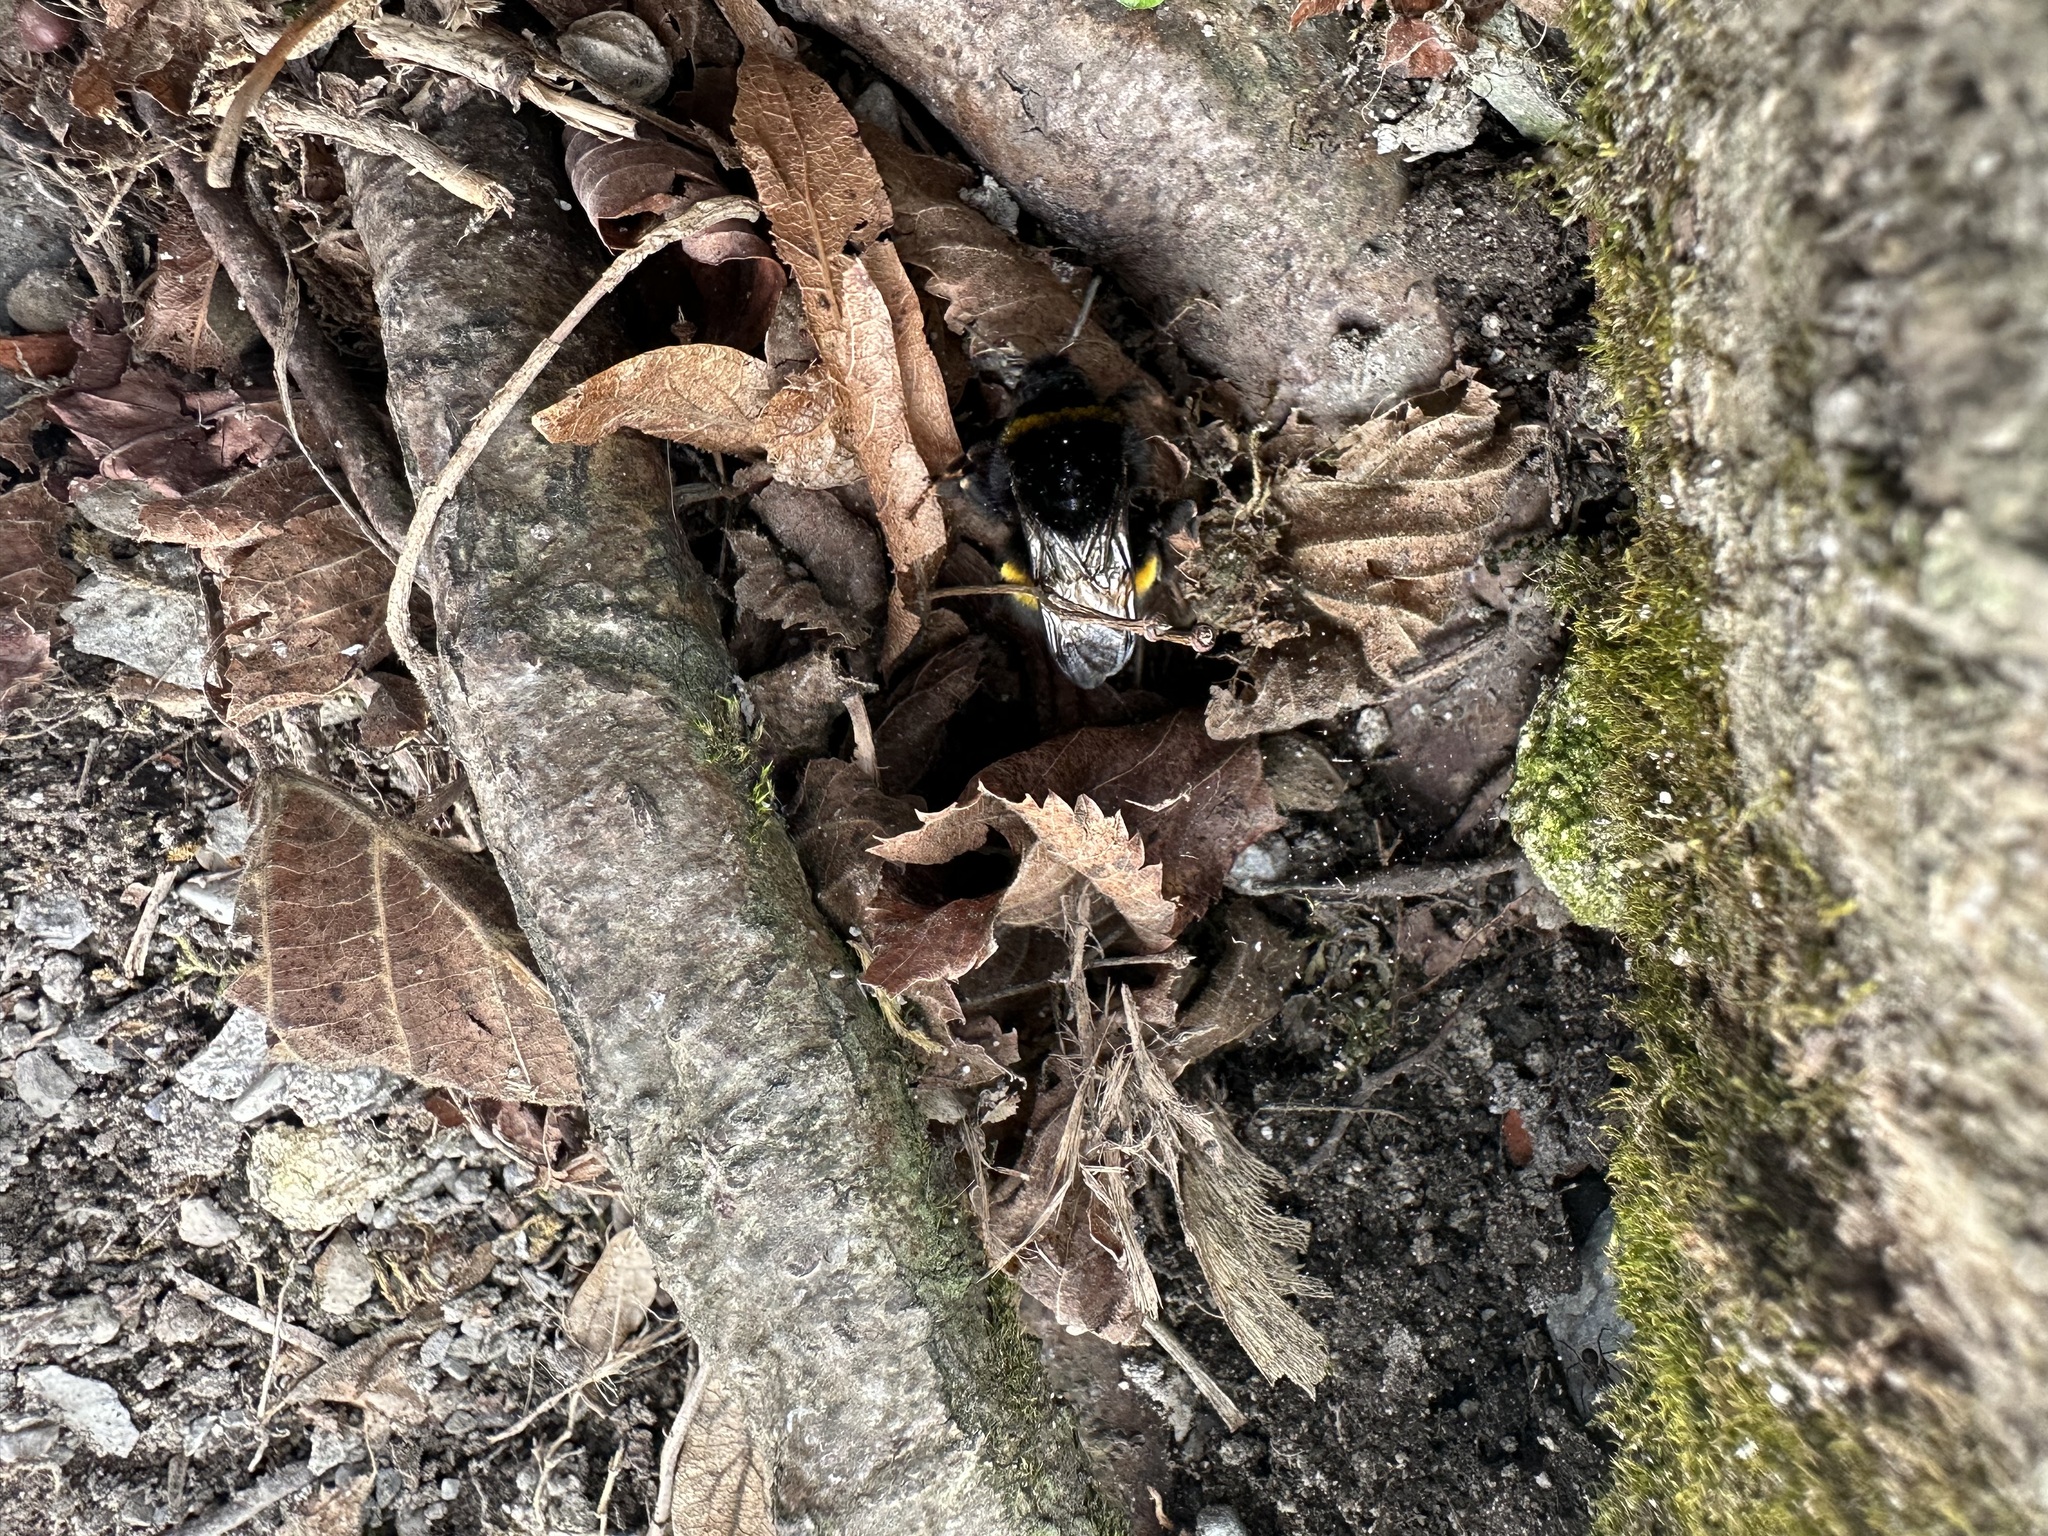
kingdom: Animalia
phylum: Arthropoda
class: Insecta
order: Hymenoptera
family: Apidae
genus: Bombus
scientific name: Bombus terrestris
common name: Buff-tailed bumblebee
